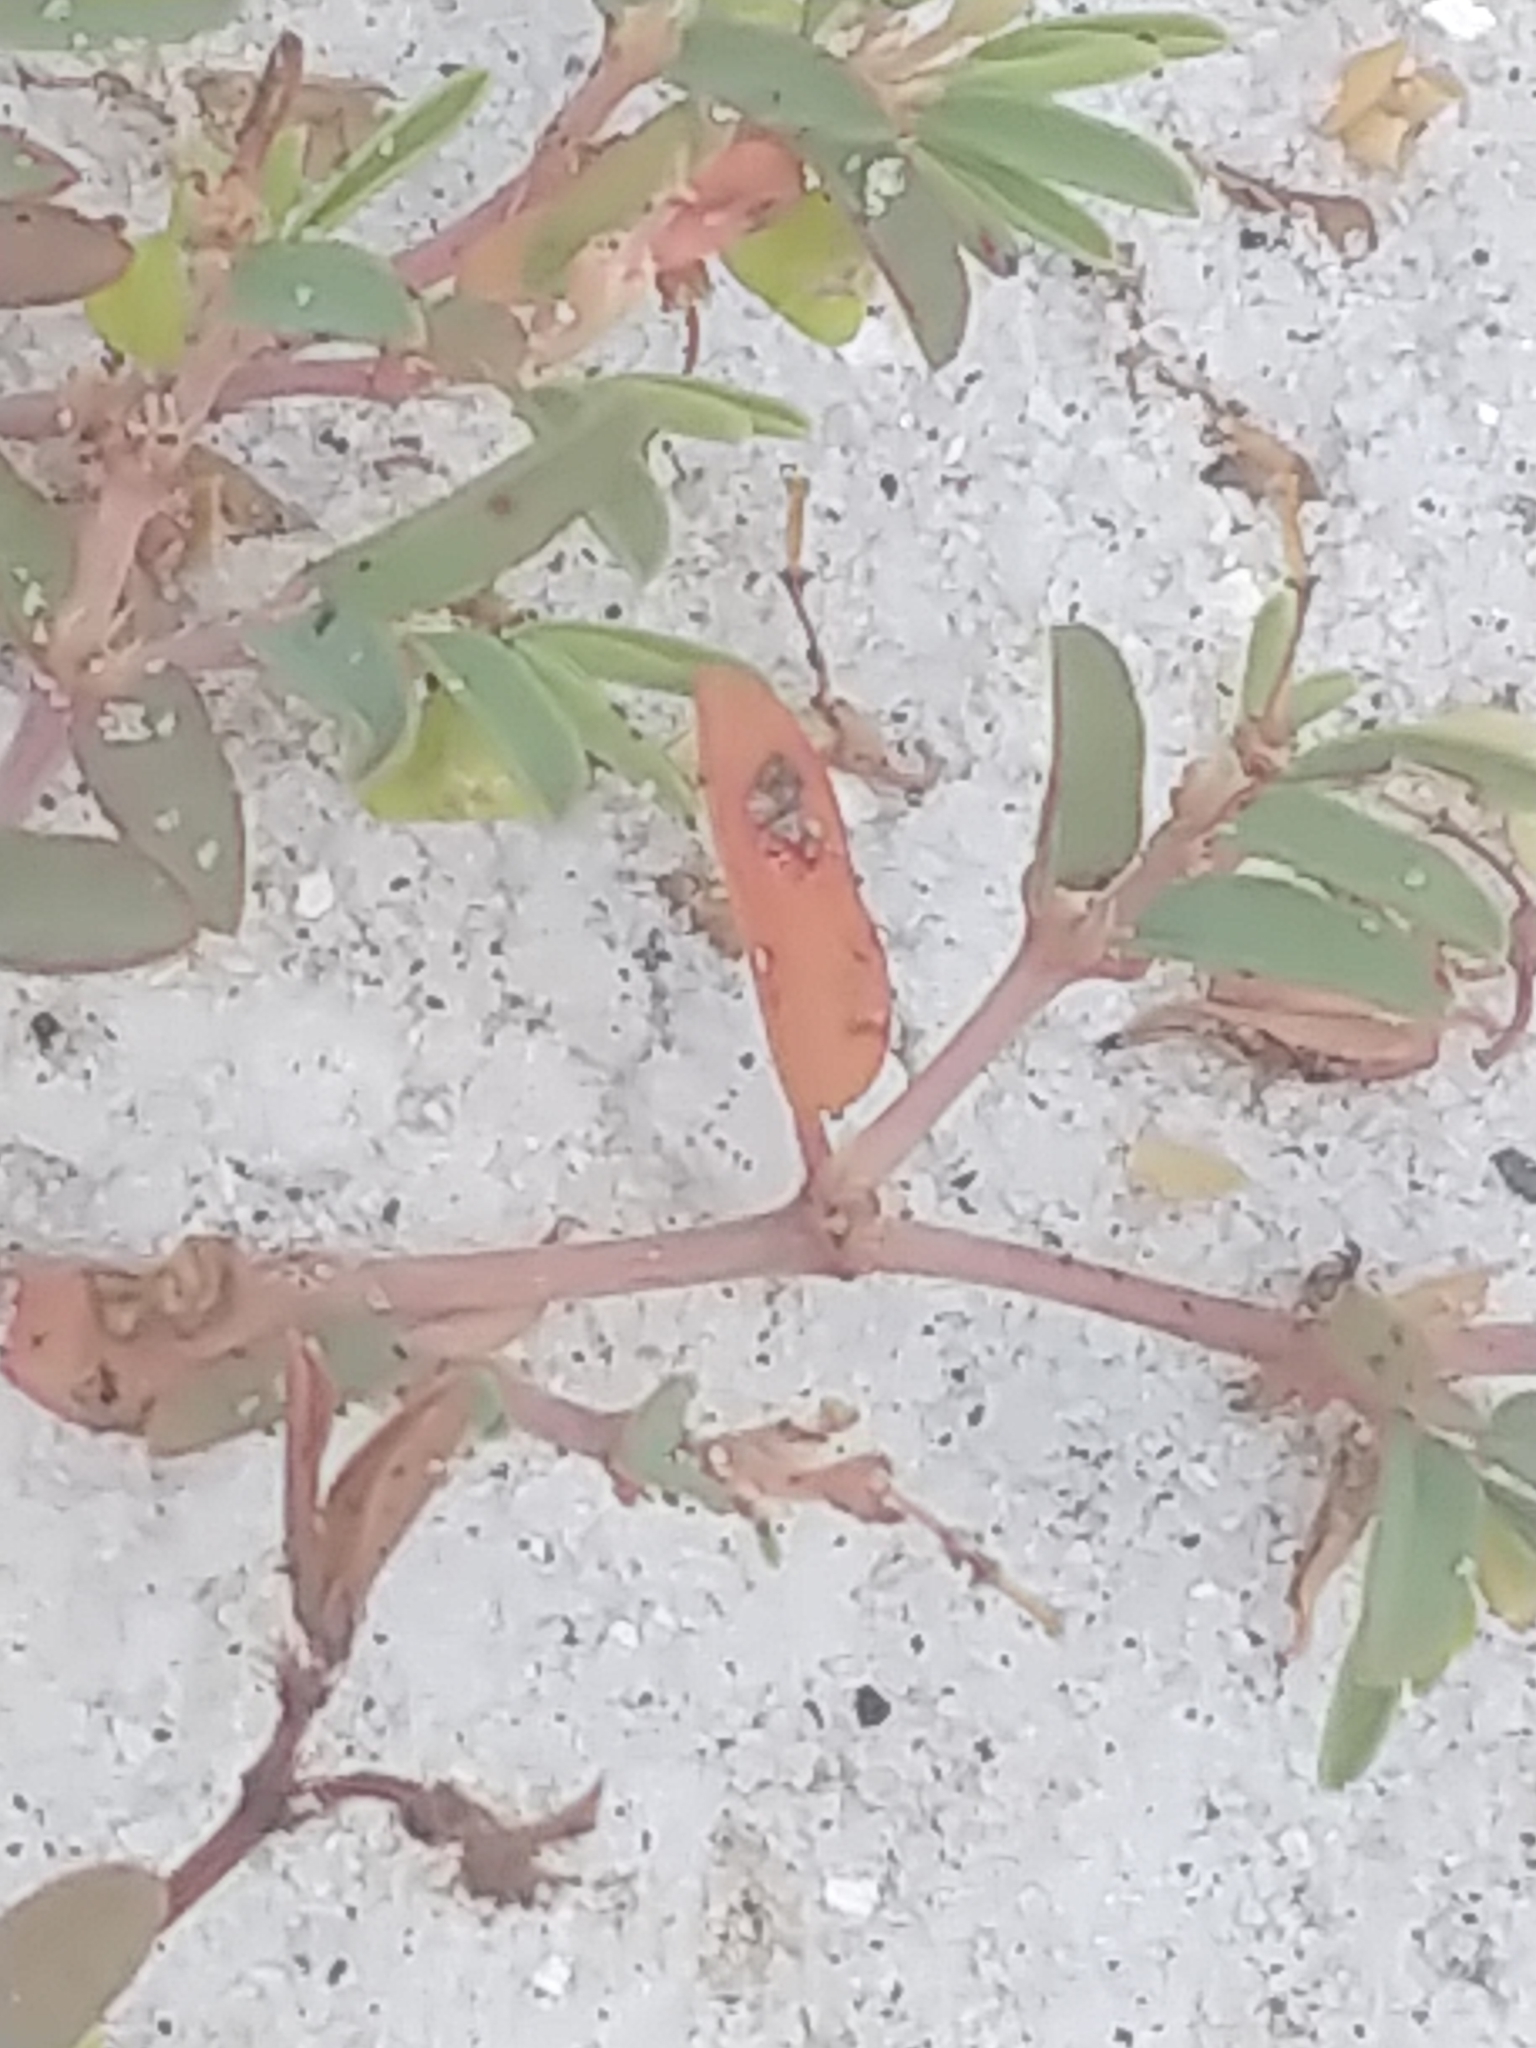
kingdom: Plantae
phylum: Tracheophyta
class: Magnoliopsida
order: Malpighiales
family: Euphorbiaceae
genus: Euphorbia
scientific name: Euphorbia bombensis
